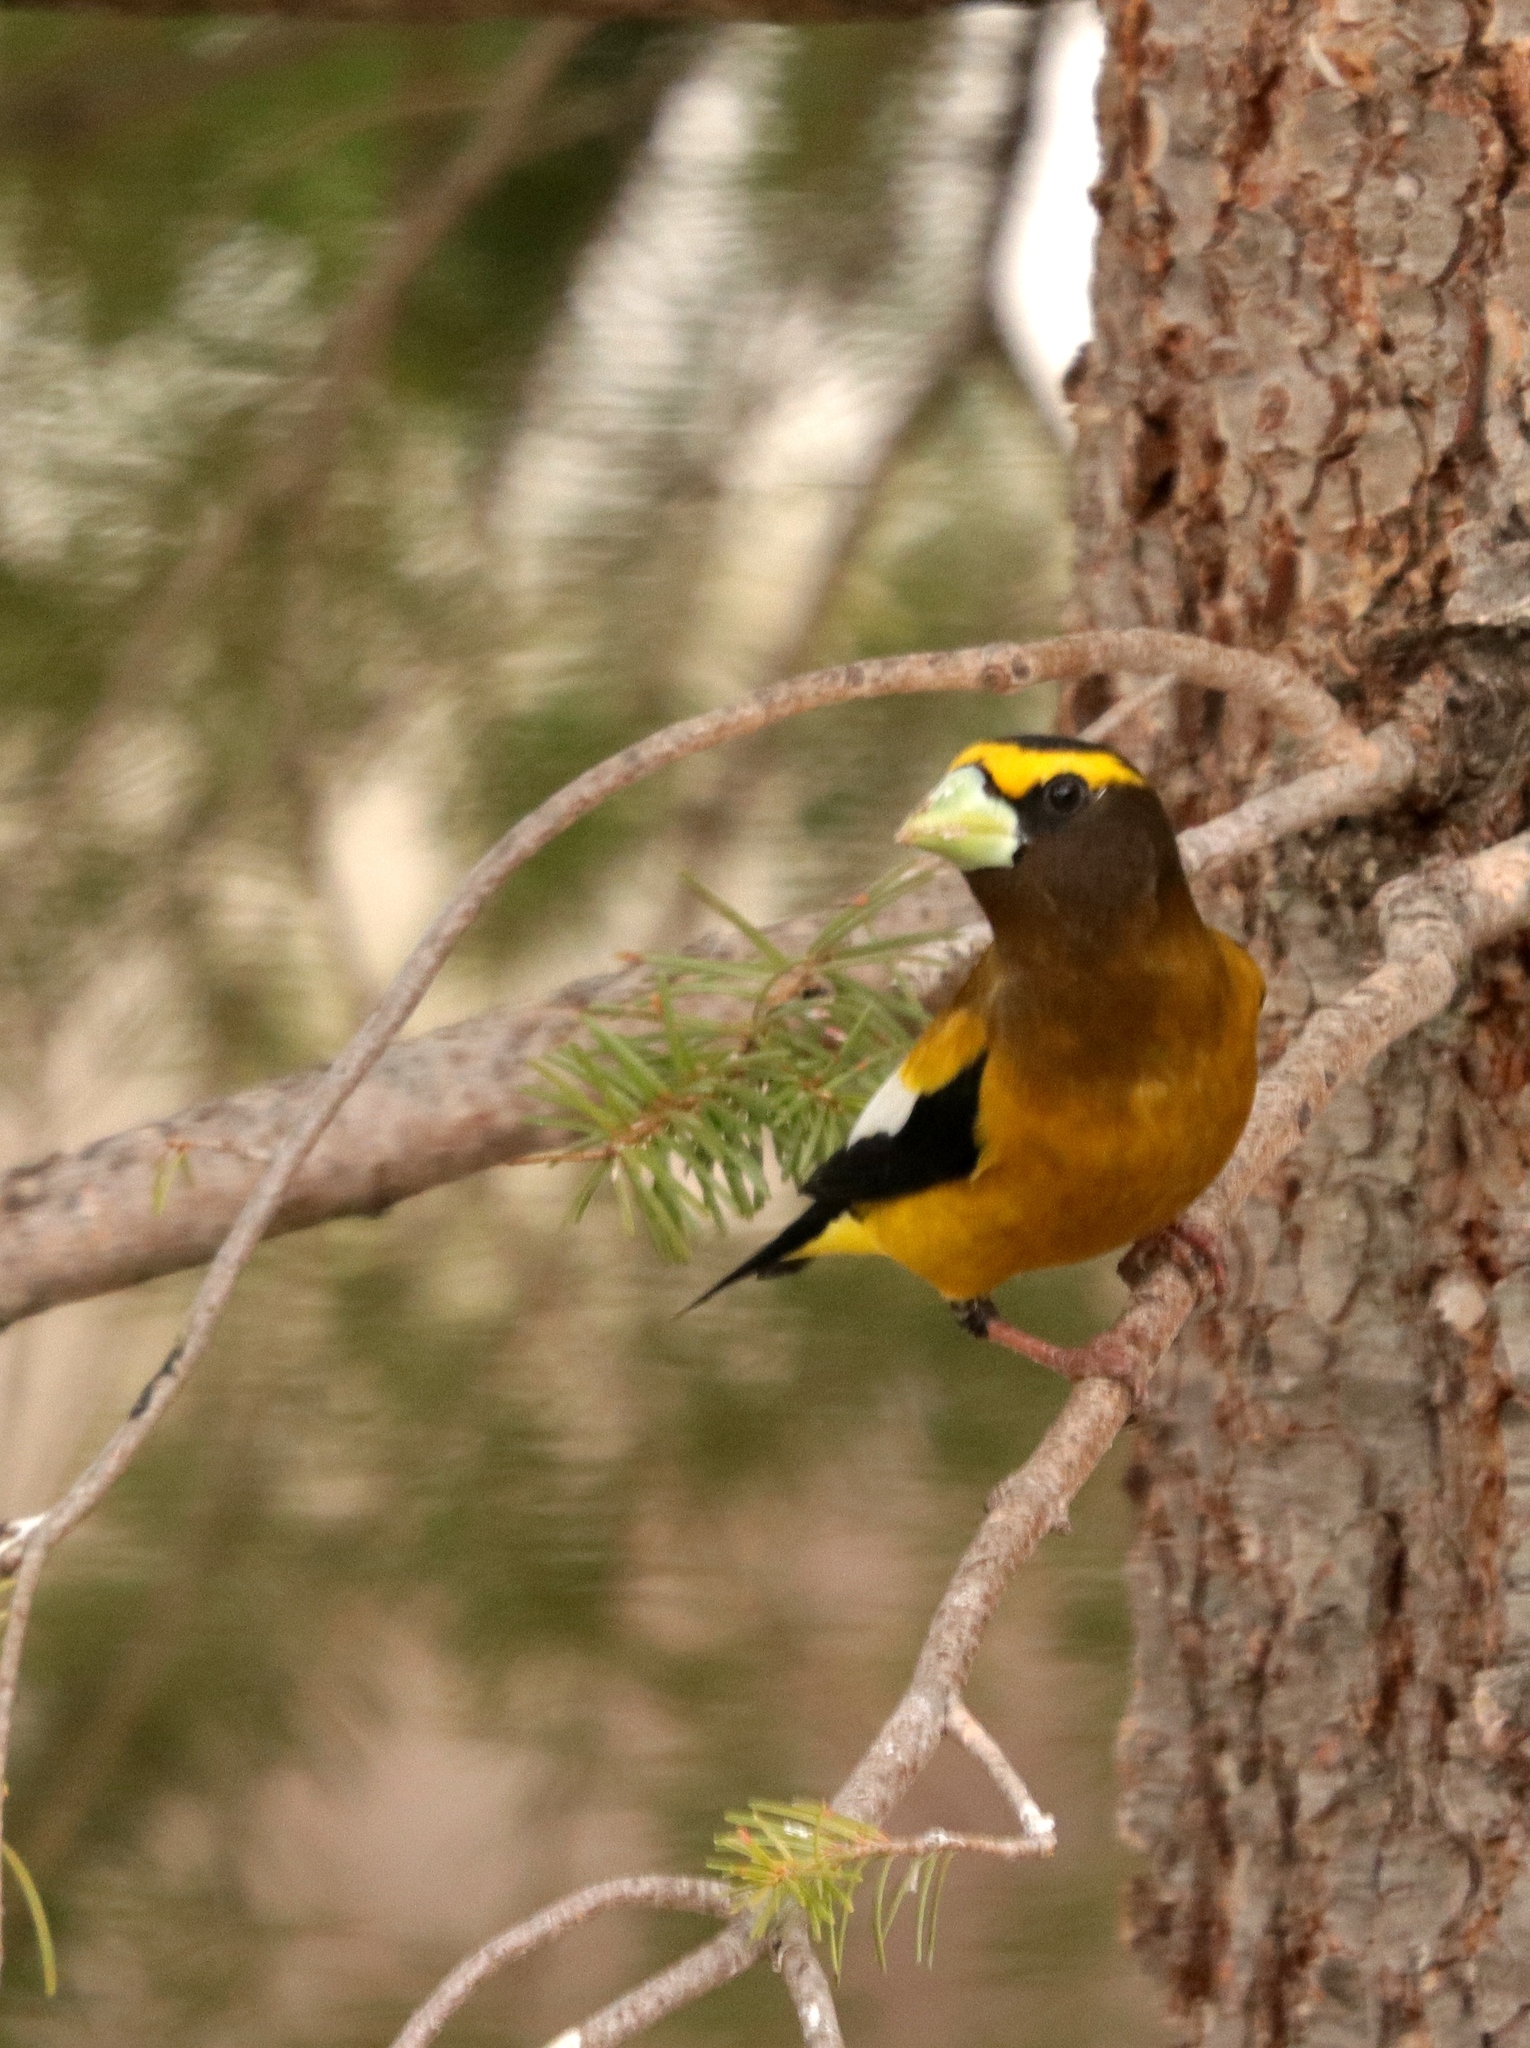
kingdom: Animalia
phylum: Chordata
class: Aves
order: Passeriformes
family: Fringillidae
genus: Hesperiphona
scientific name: Hesperiphona vespertina
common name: Evening grosbeak
